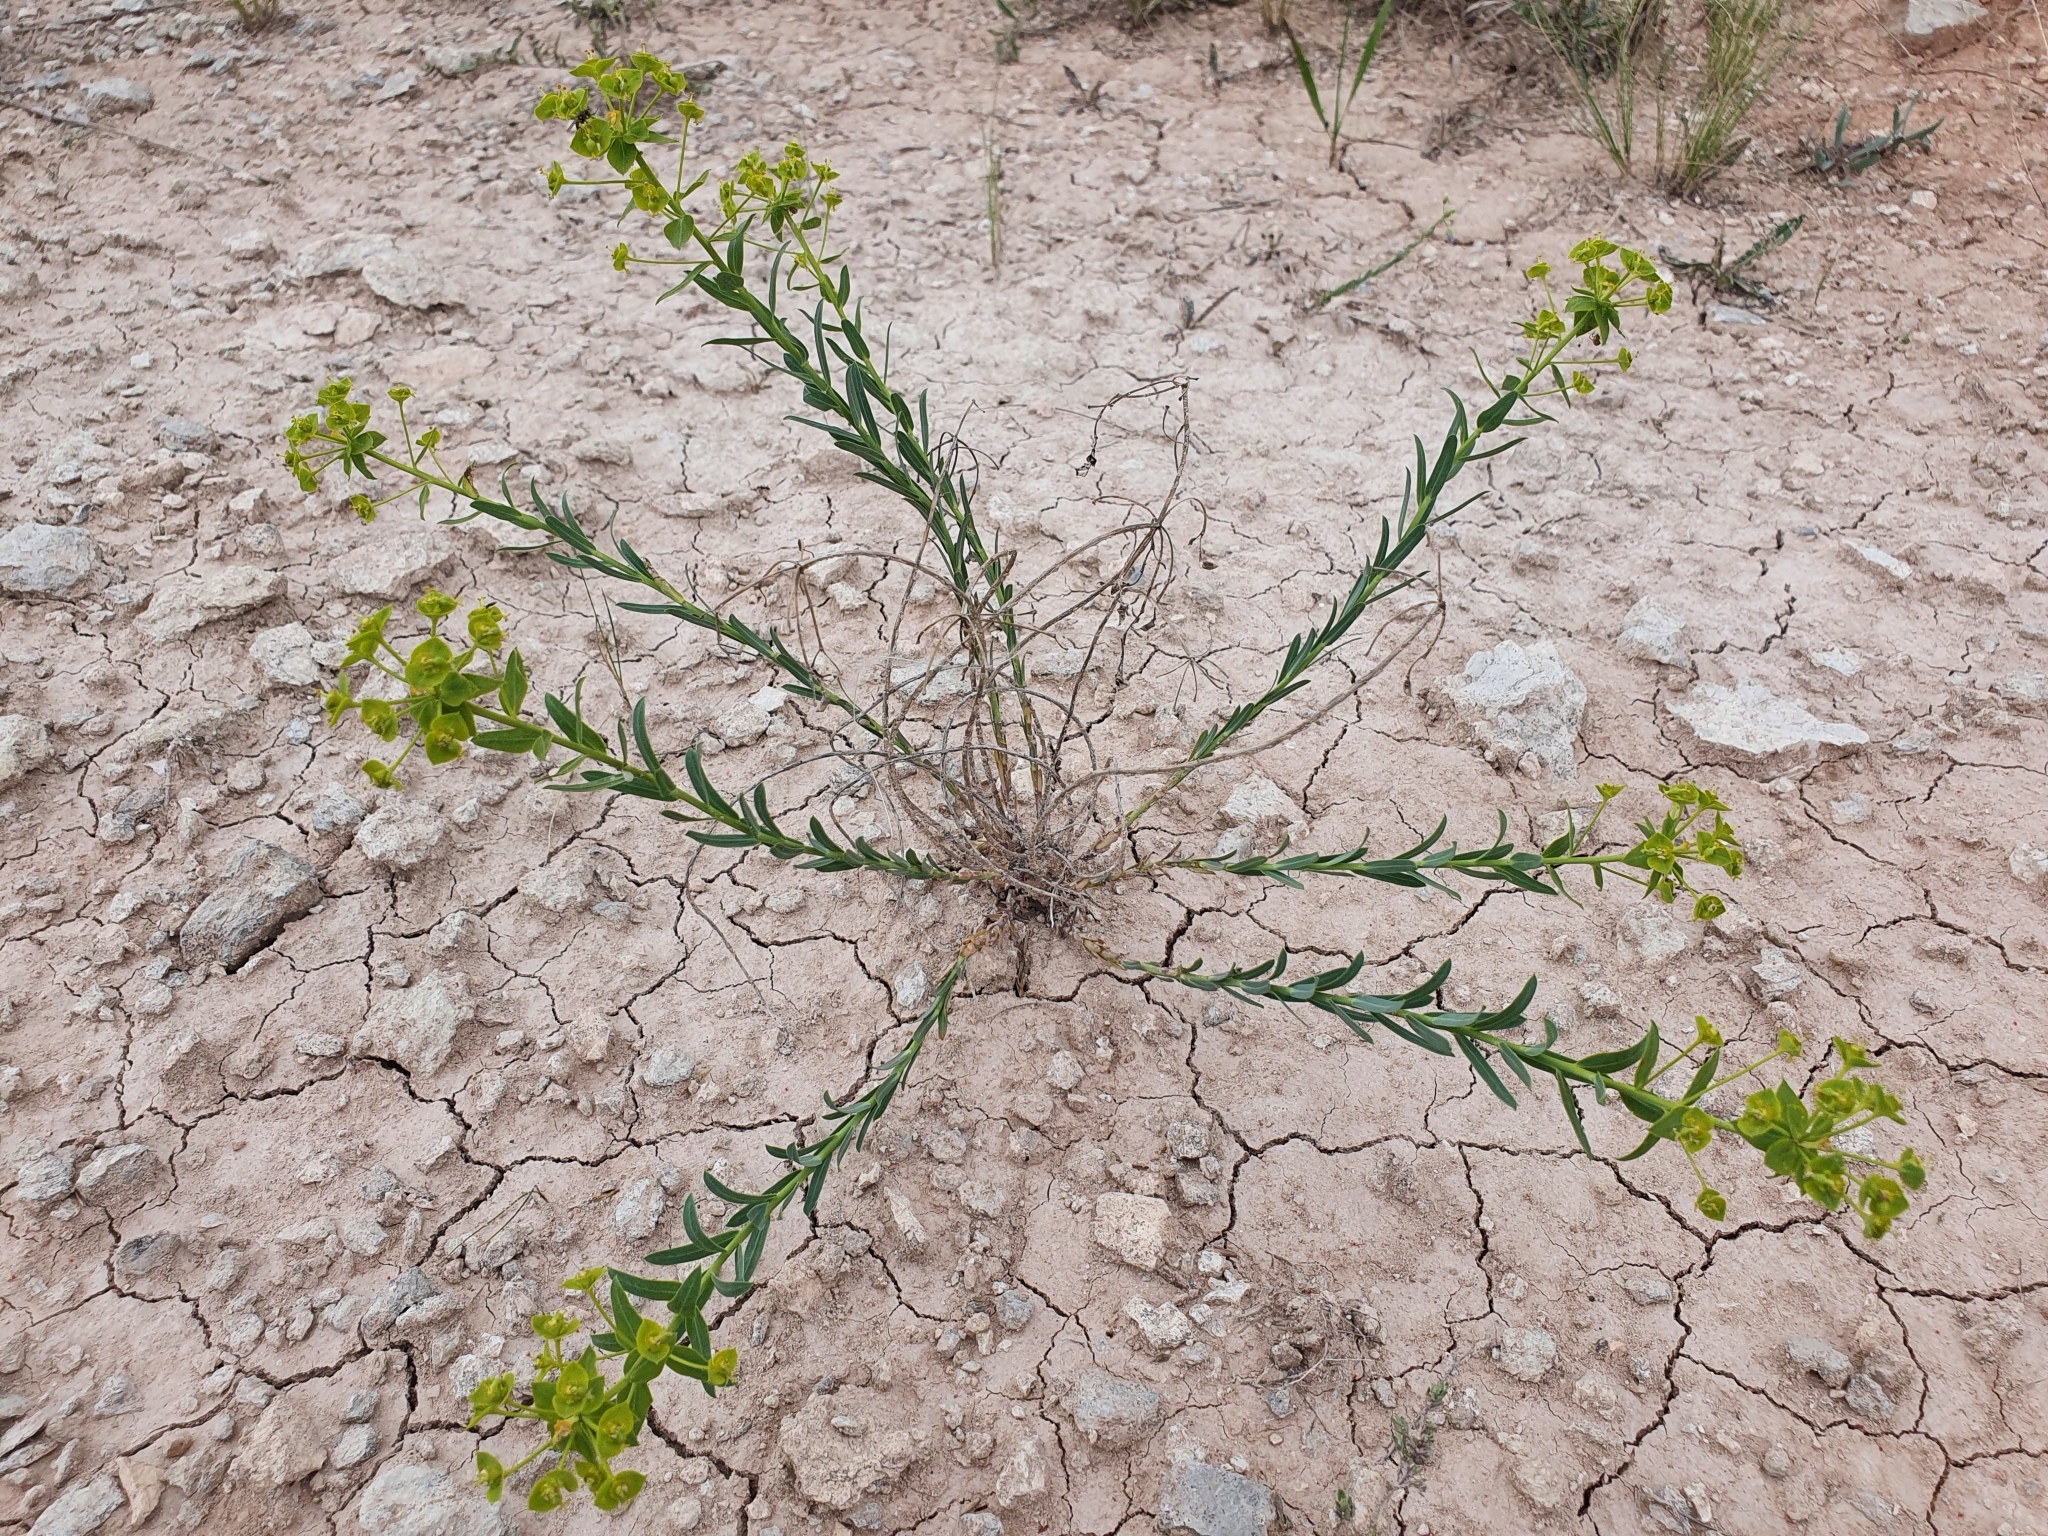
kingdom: Plantae
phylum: Tracheophyta
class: Magnoliopsida
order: Malpighiales
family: Euphorbiaceae
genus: Euphorbia
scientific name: Euphorbia seguieriana
